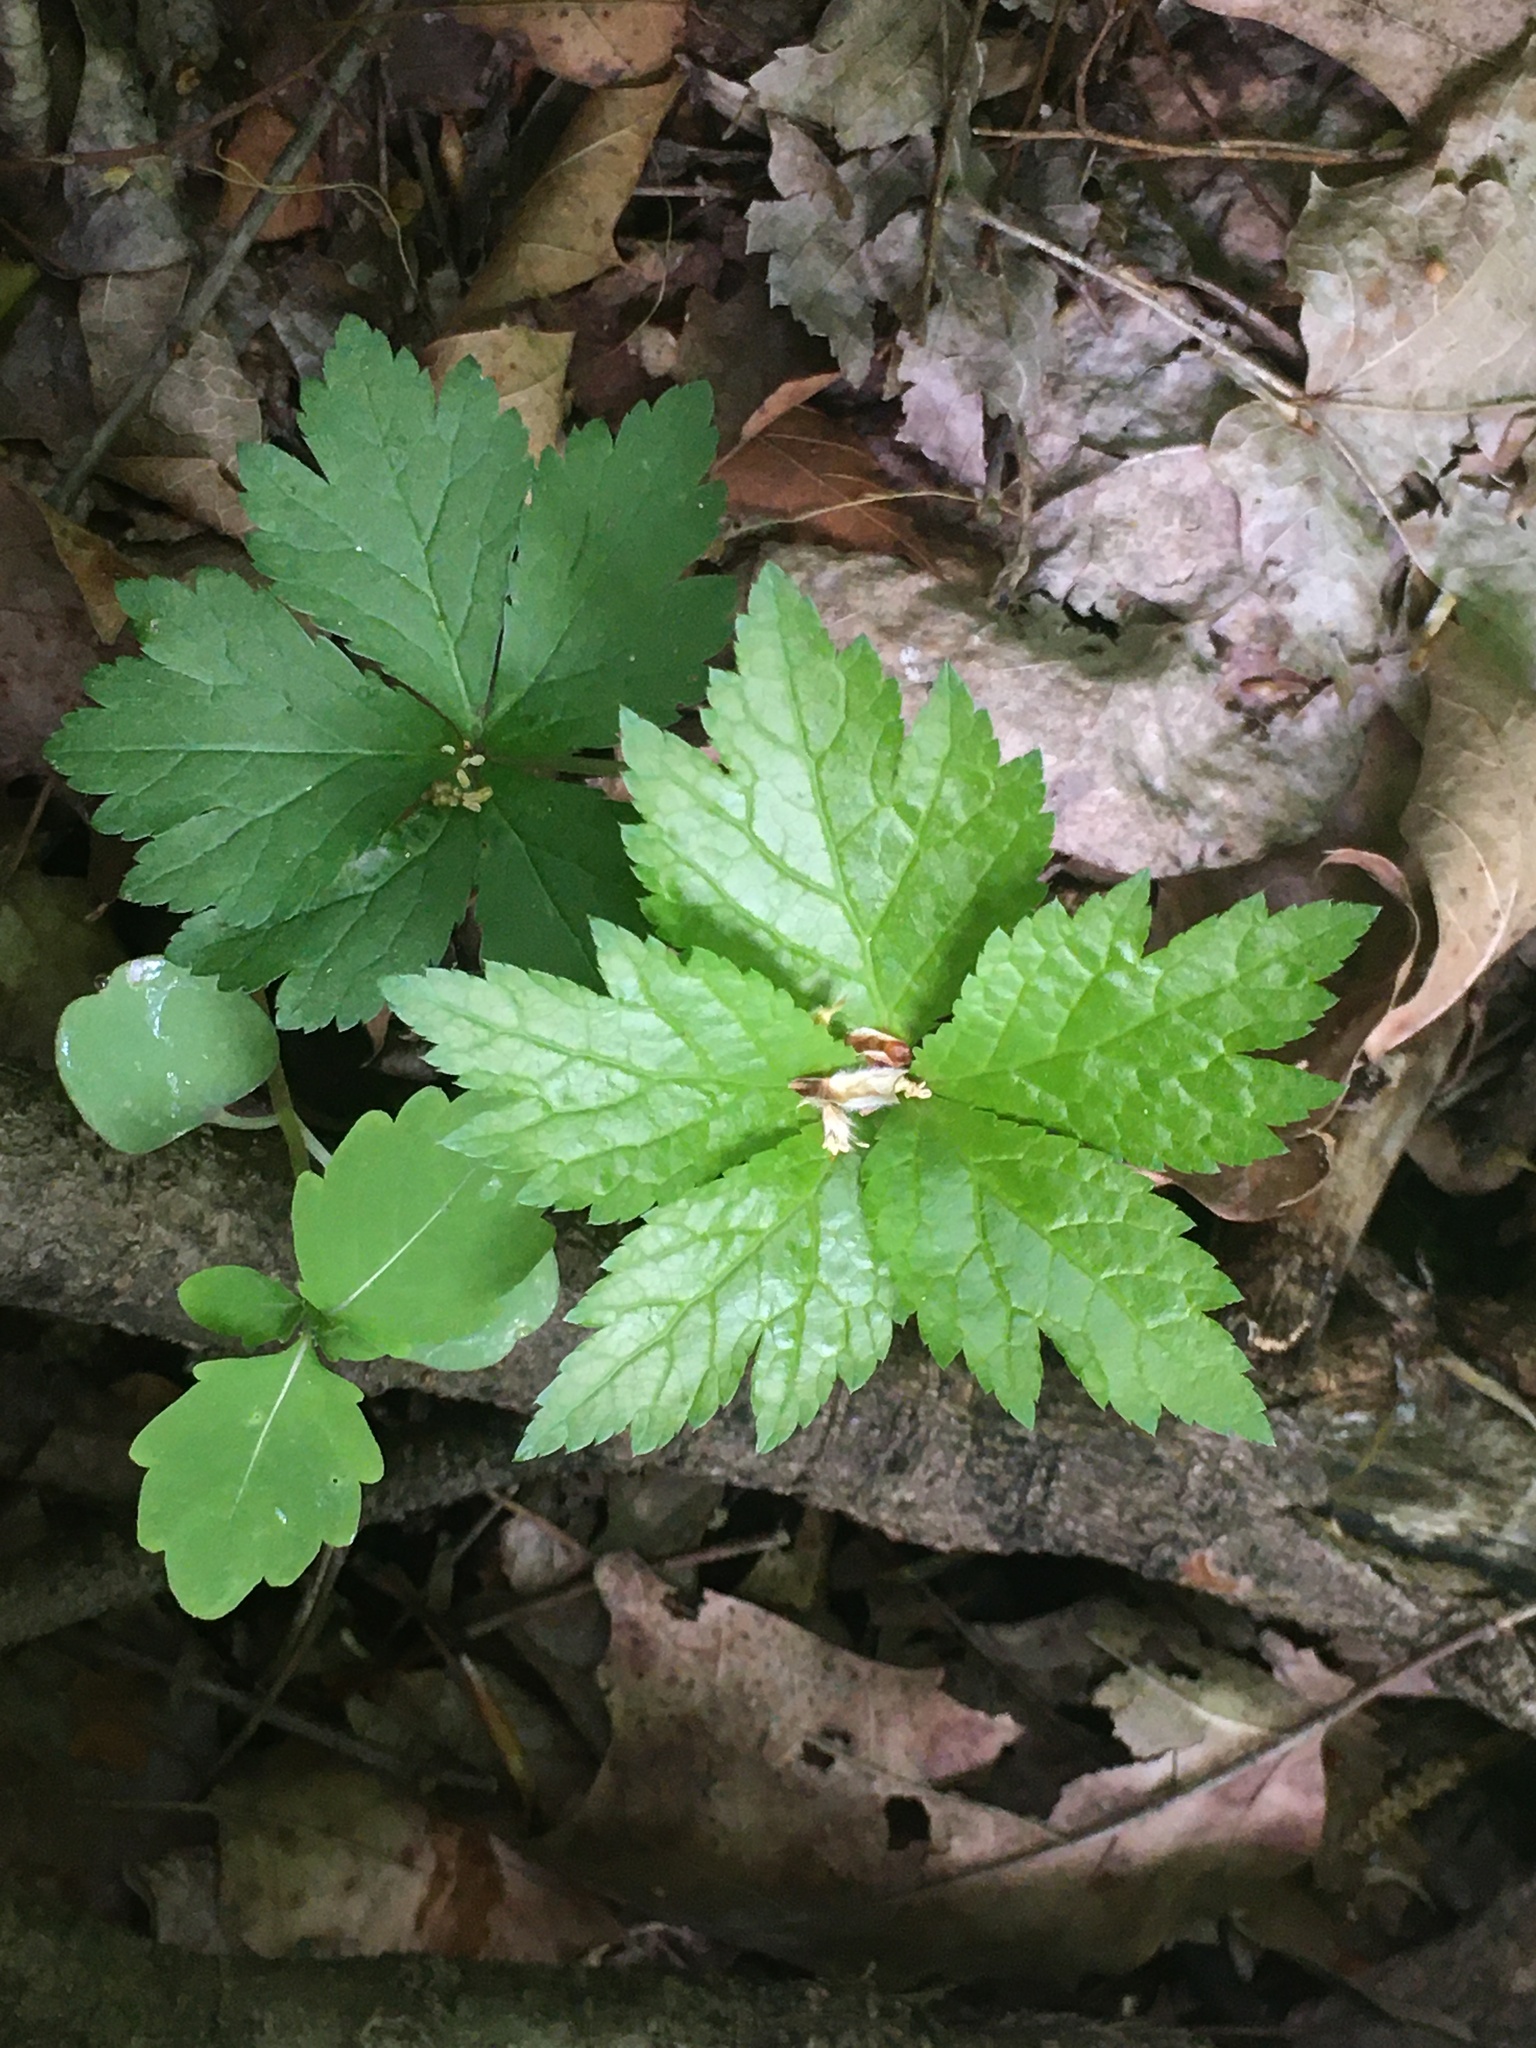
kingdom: Plantae
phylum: Tracheophyta
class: Magnoliopsida
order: Ranunculales
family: Ranunculaceae
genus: Hydrastis
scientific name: Hydrastis canadensis
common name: Goldenseal
